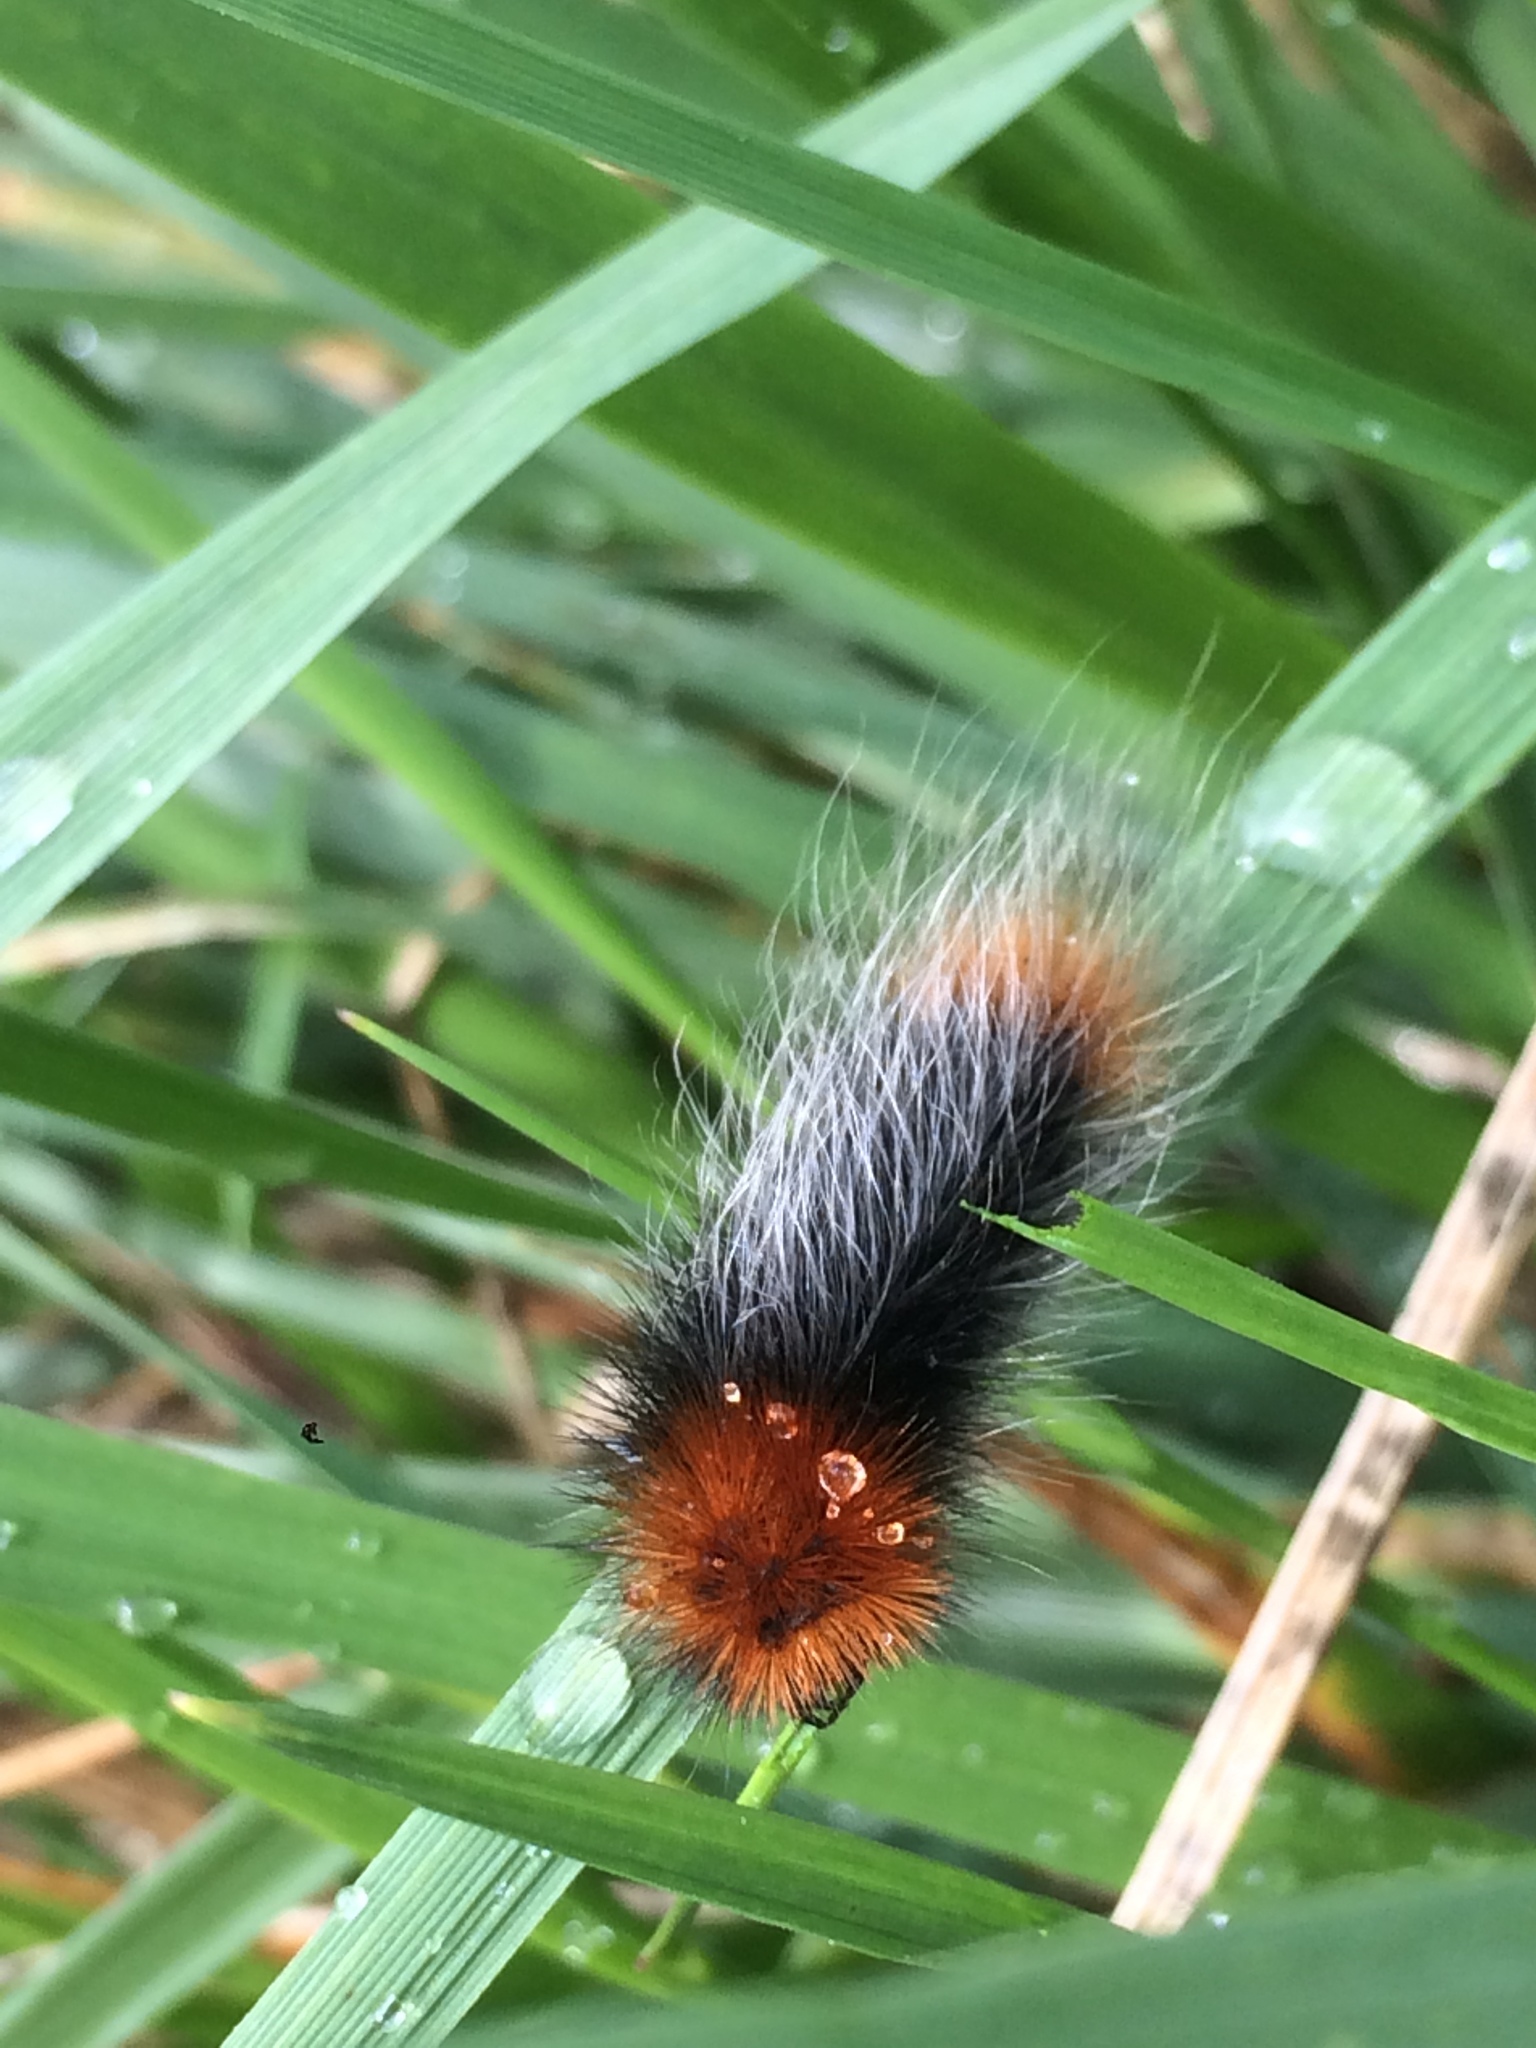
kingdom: Animalia
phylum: Arthropoda
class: Insecta
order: Lepidoptera
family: Erebidae
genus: Arctia
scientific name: Arctia tigrina
